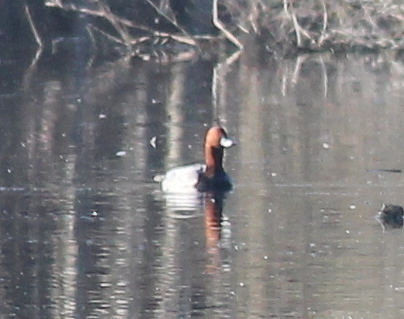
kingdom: Animalia
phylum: Chordata
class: Aves
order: Anseriformes
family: Anatidae
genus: Aythya
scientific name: Aythya ferina
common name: Common pochard
